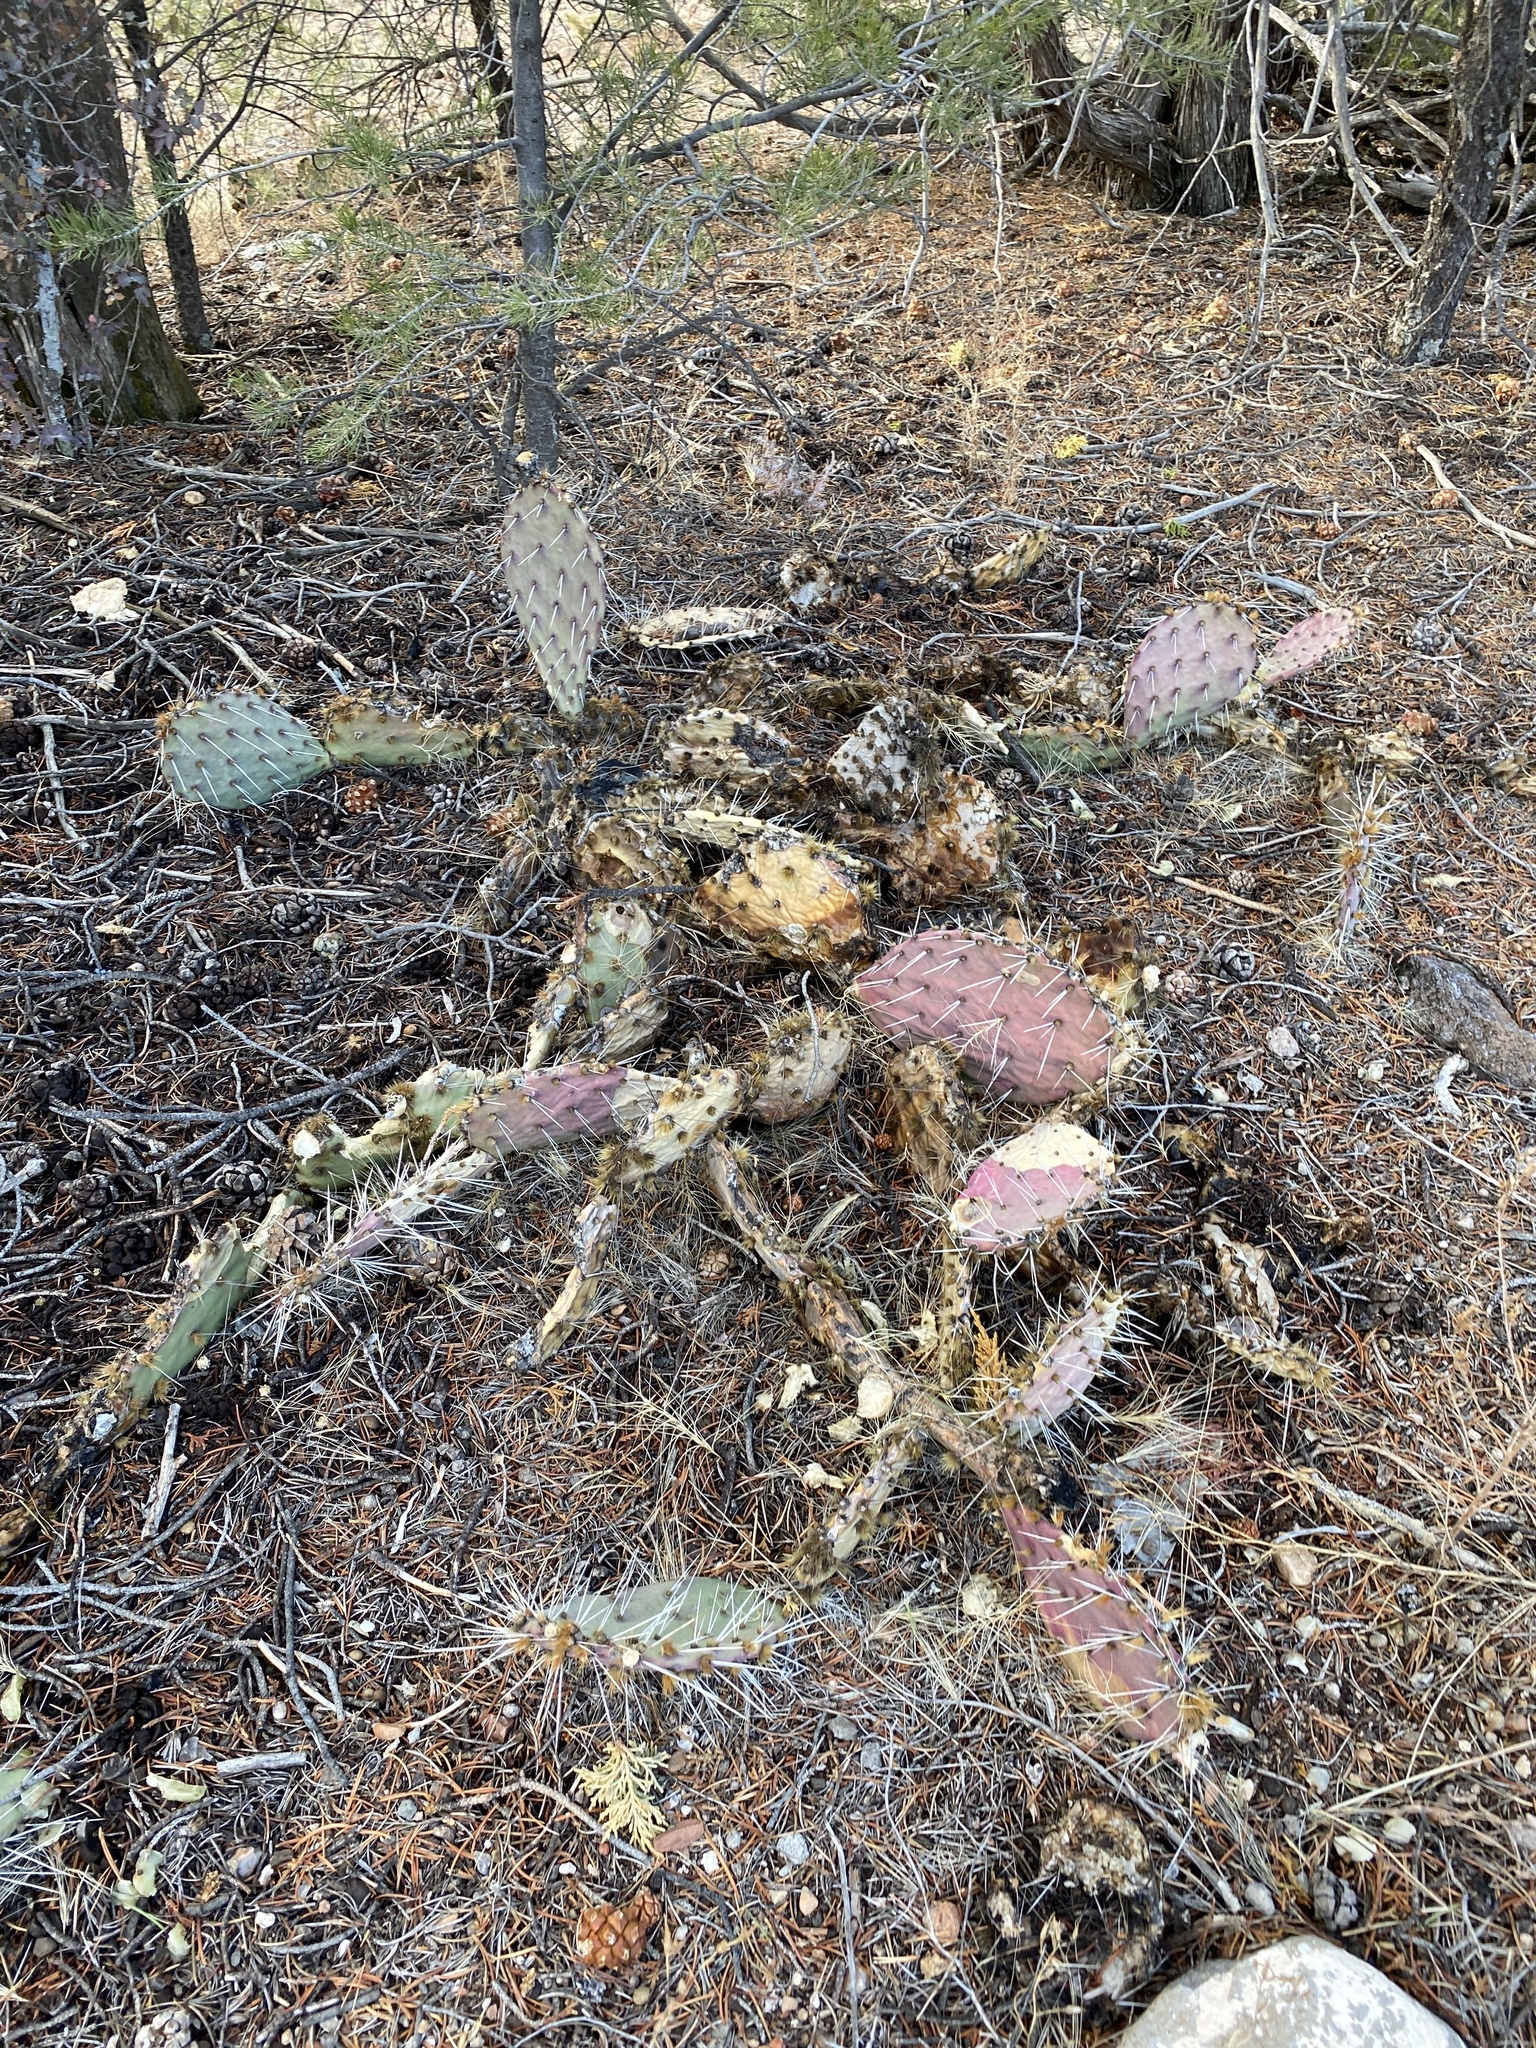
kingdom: Plantae
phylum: Tracheophyta
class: Magnoliopsida
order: Caryophyllales
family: Cactaceae
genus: Opuntia
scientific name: Opuntia phaeacantha
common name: New mexico prickly-pear
